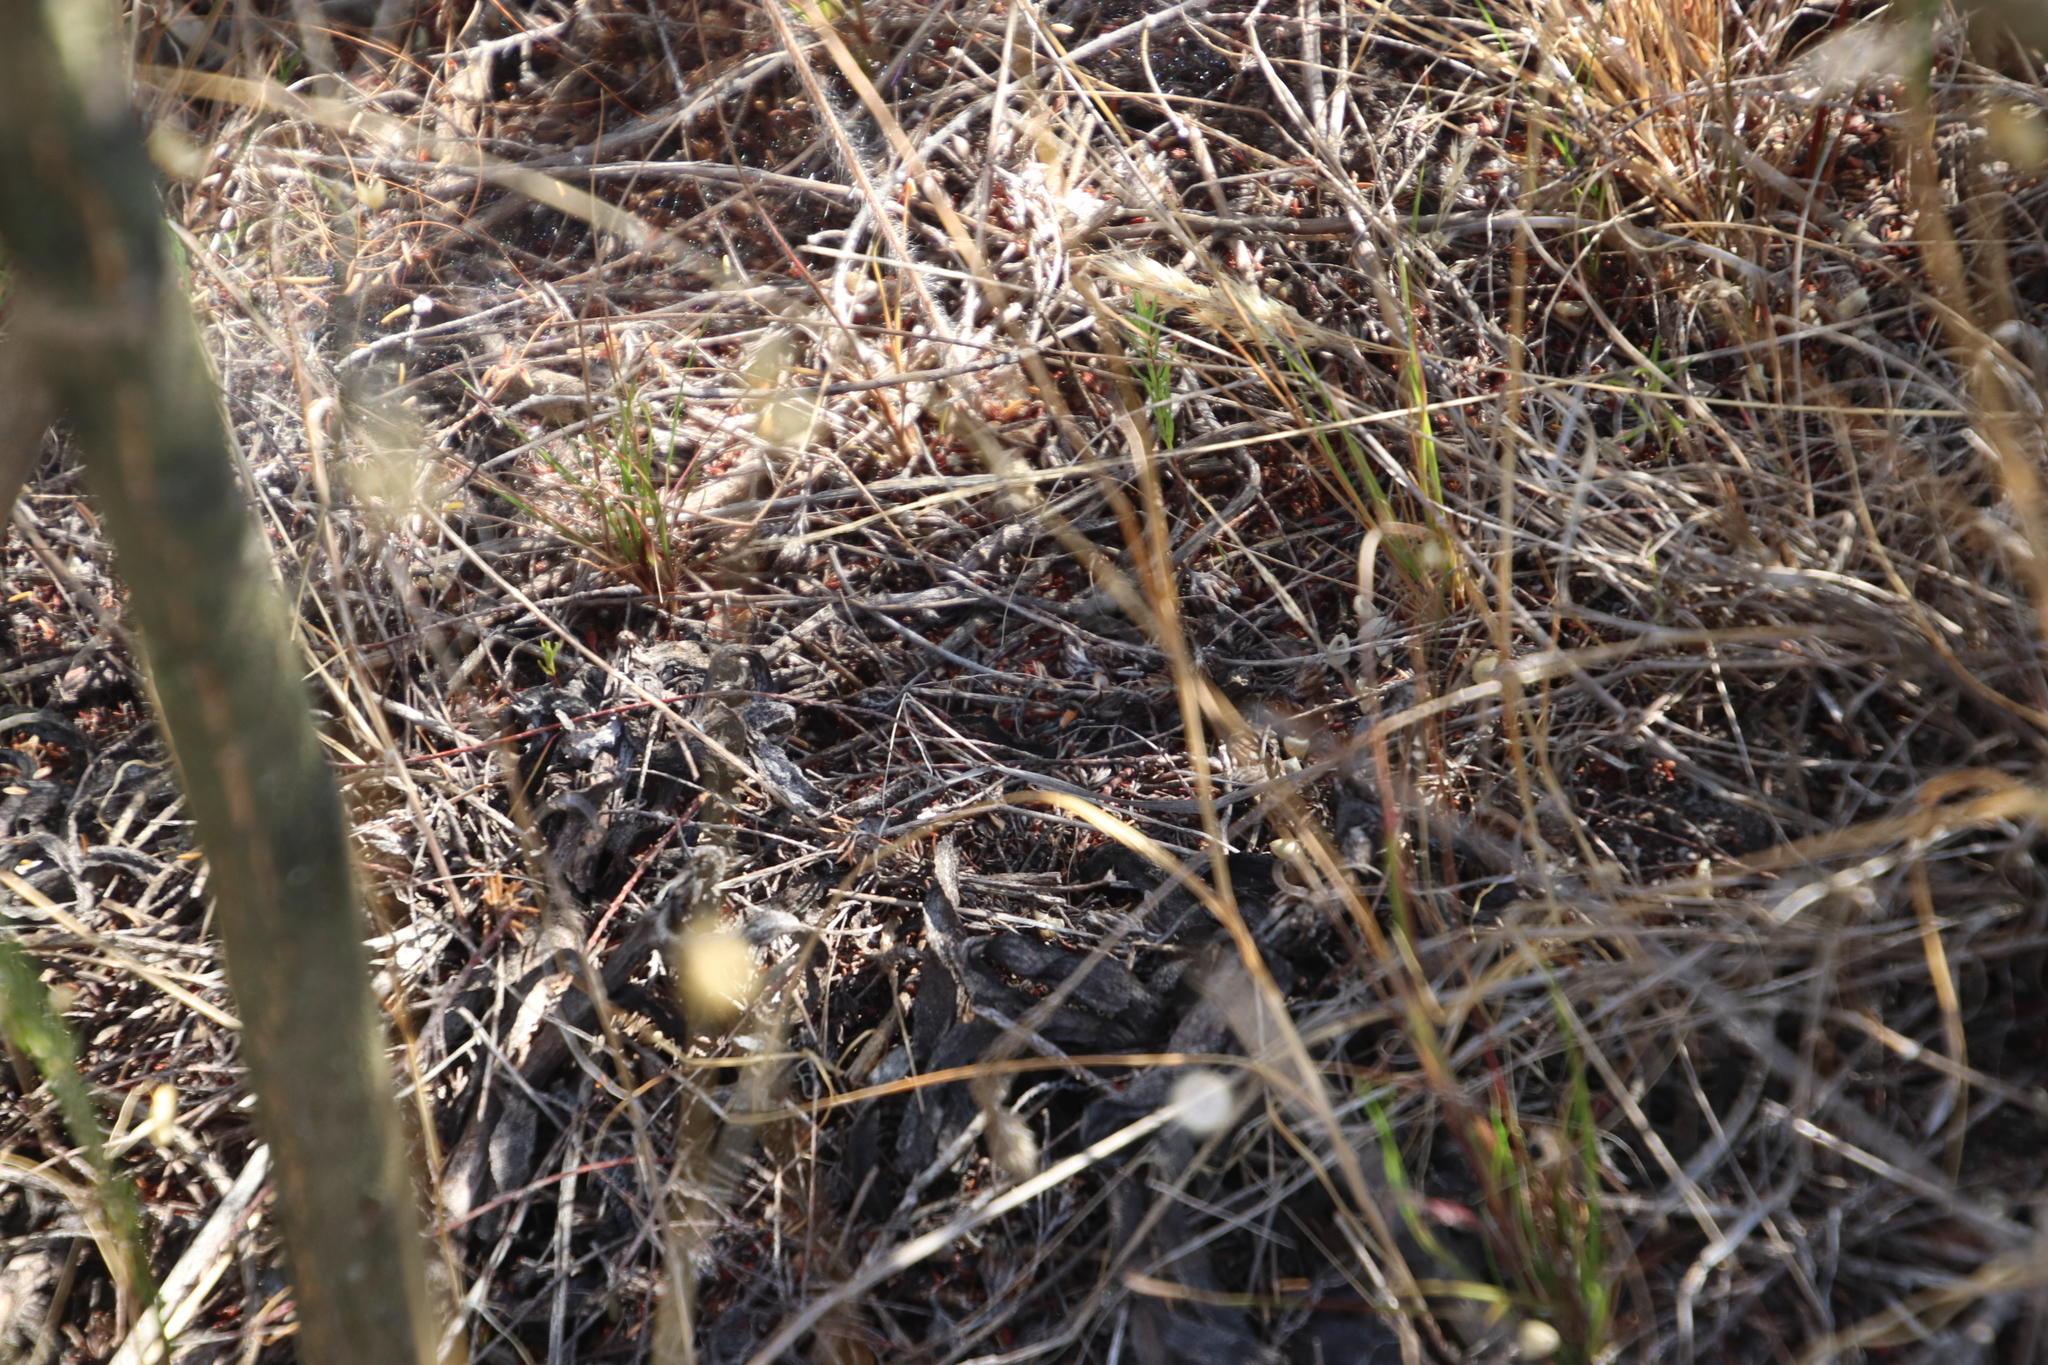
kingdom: Animalia
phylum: Chordata
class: Aves
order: Caprimulgiformes
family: Caprimulgidae
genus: Caprimulgus
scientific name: Caprimulgus pectoralis
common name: Fiery-necked nightjar
